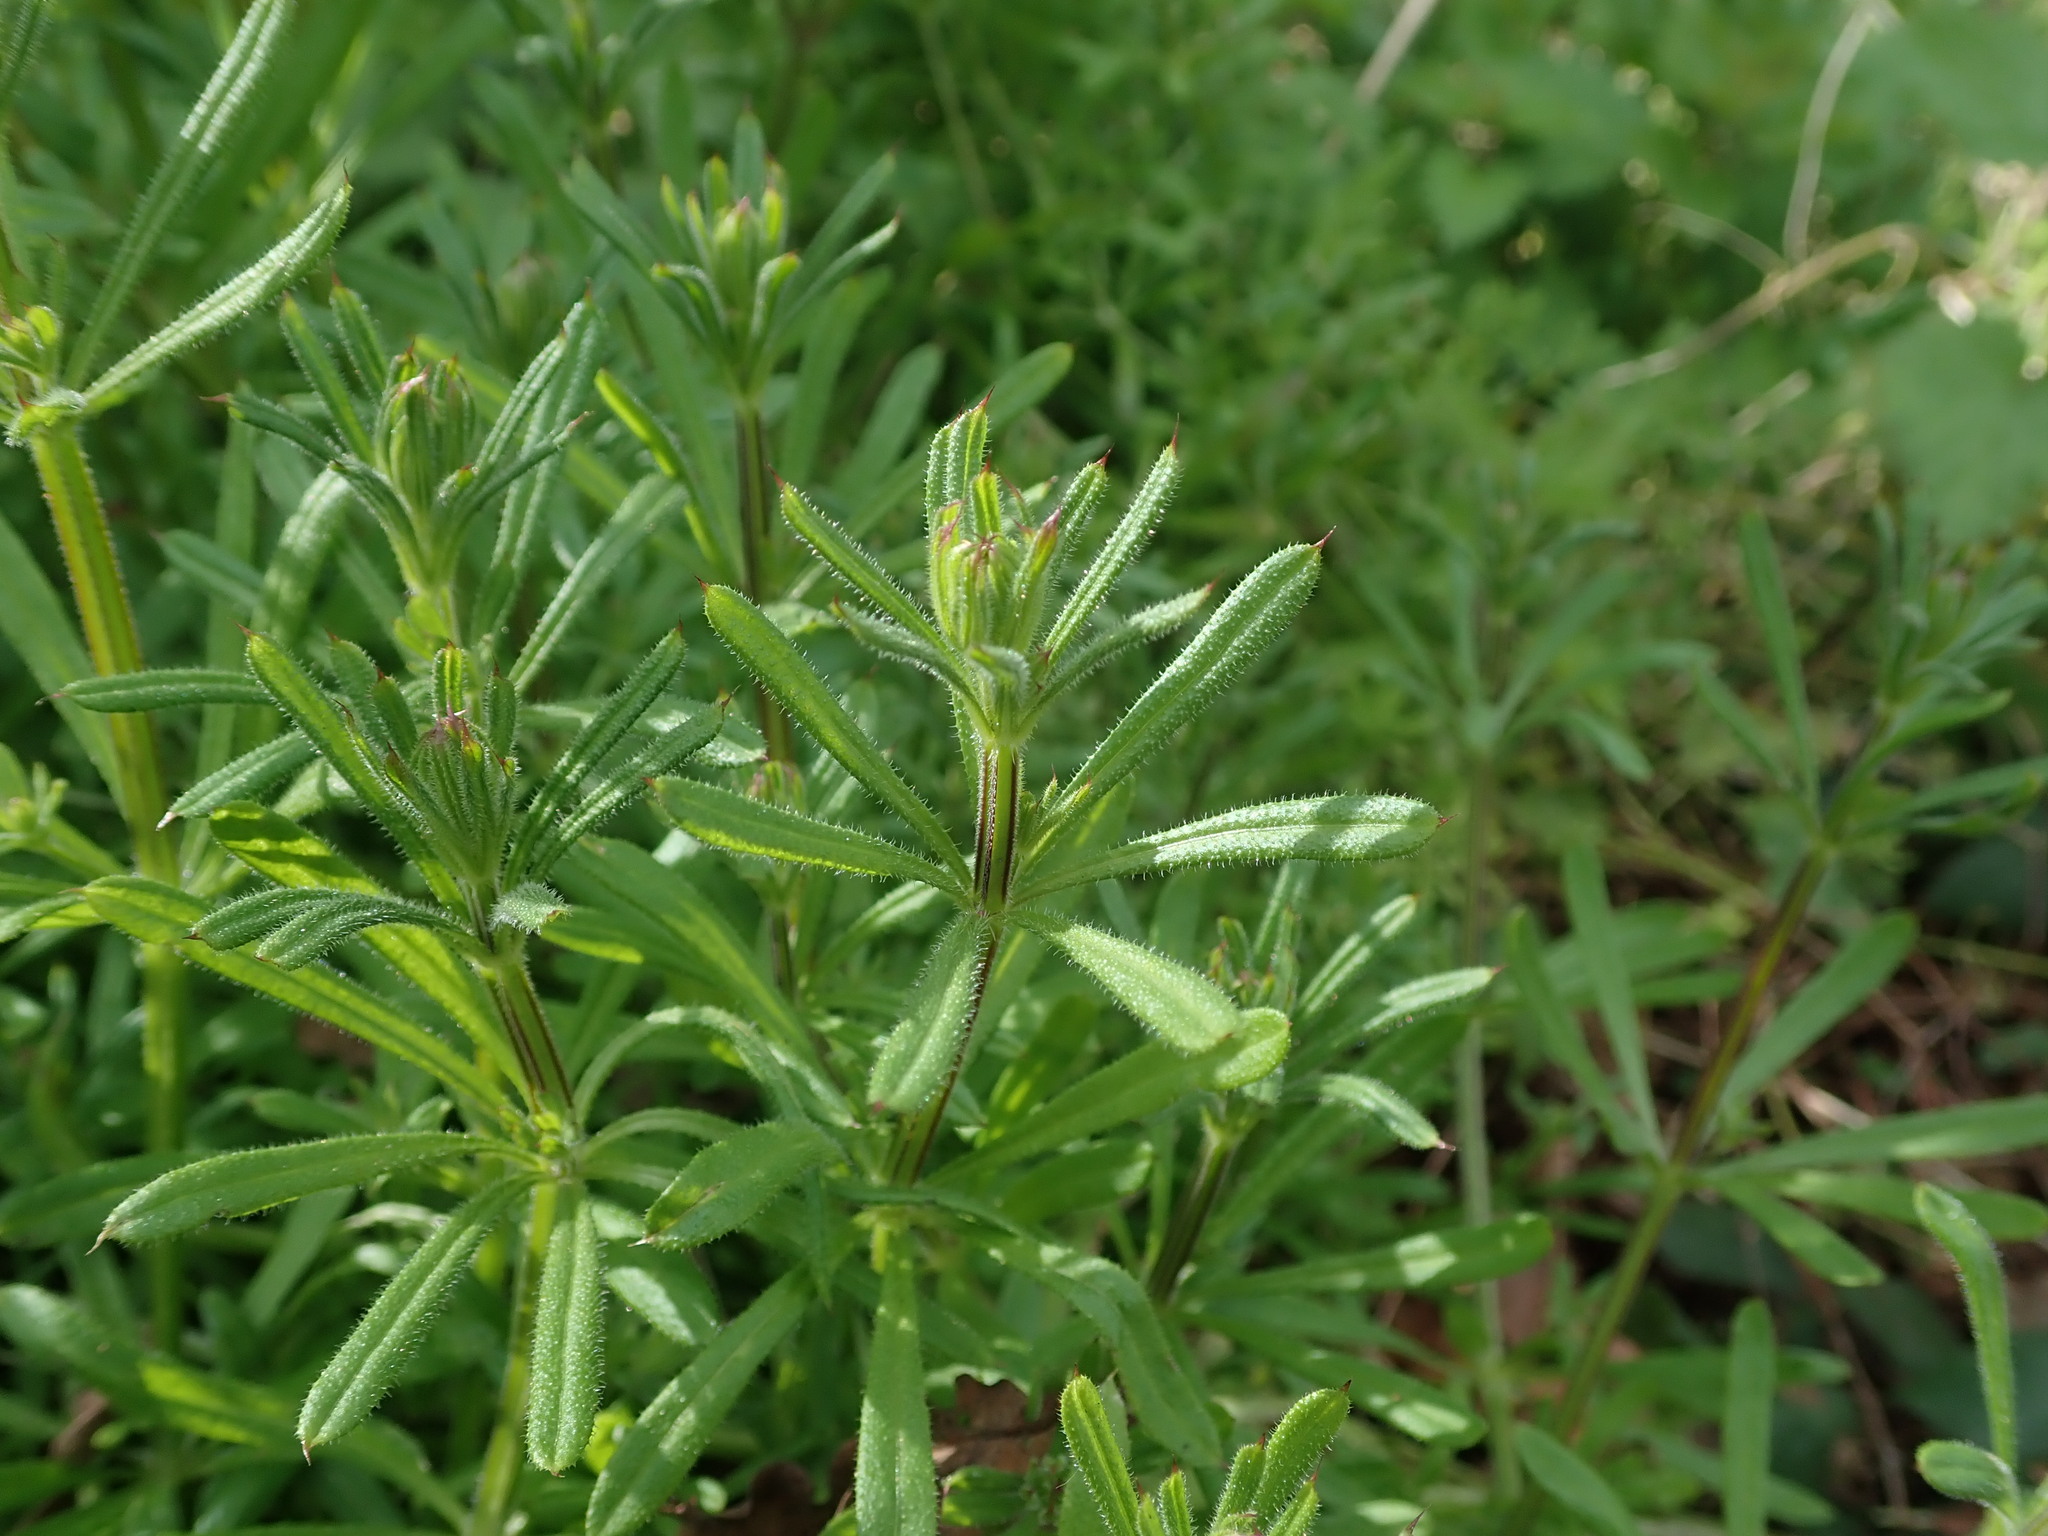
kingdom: Plantae
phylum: Tracheophyta
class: Magnoliopsida
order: Gentianales
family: Rubiaceae
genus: Galium
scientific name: Galium aparine
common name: Cleavers
